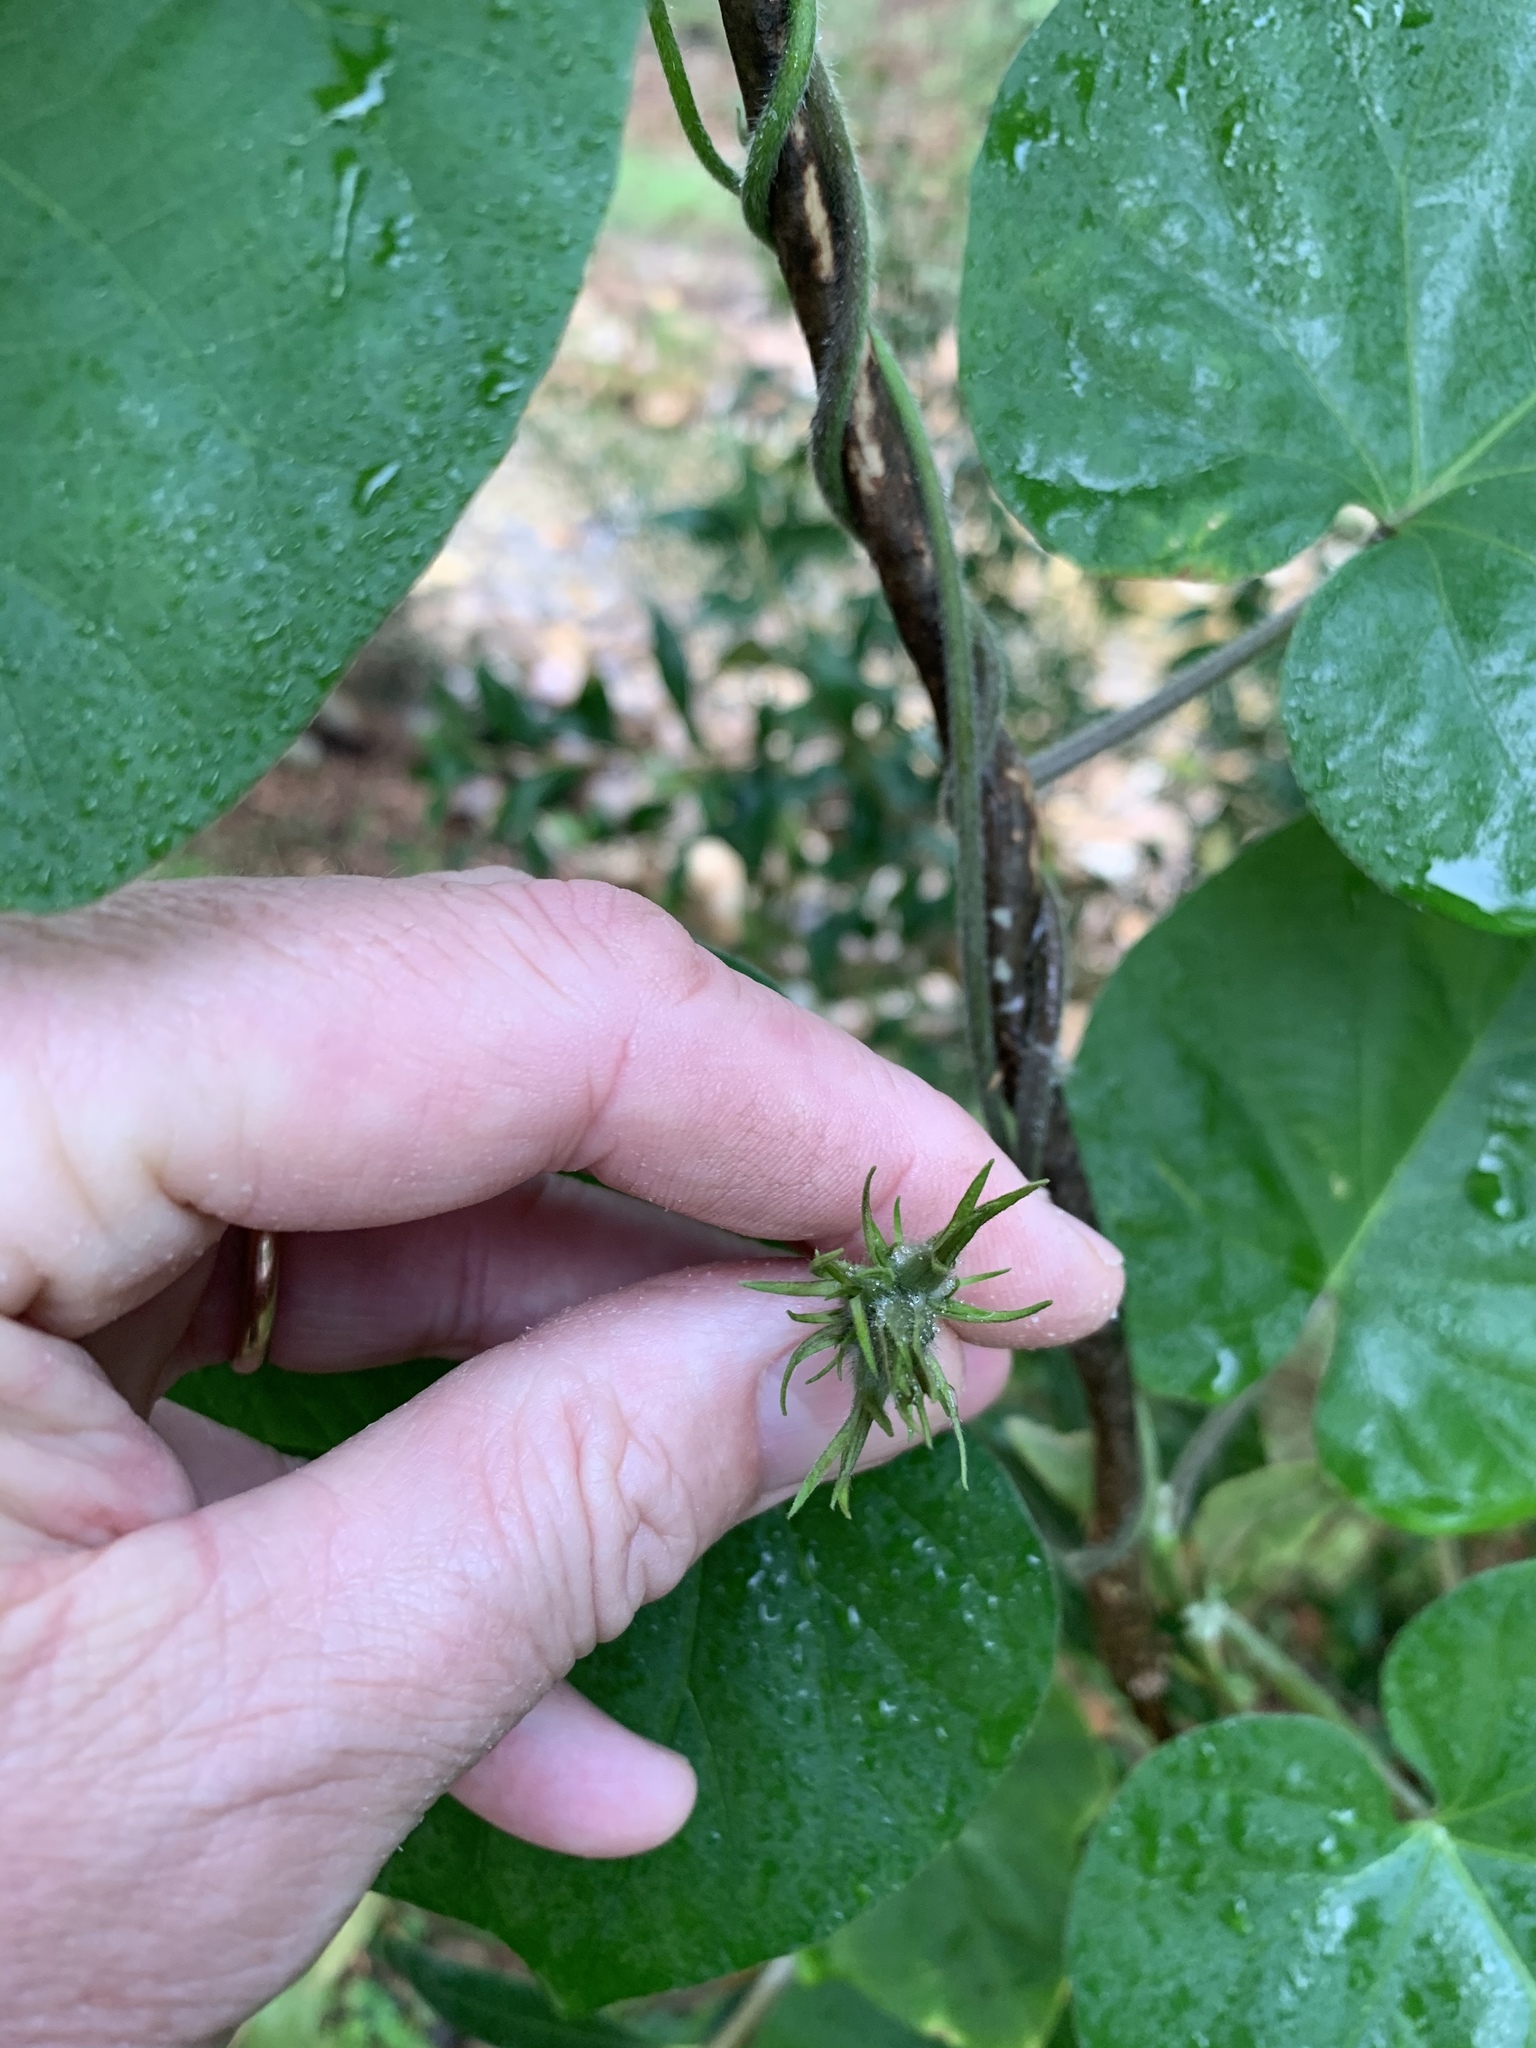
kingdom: Plantae
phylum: Tracheophyta
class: Magnoliopsida
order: Solanales
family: Convolvulaceae
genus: Ipomoea
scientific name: Ipomoea indica
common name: Blue dawnflower
